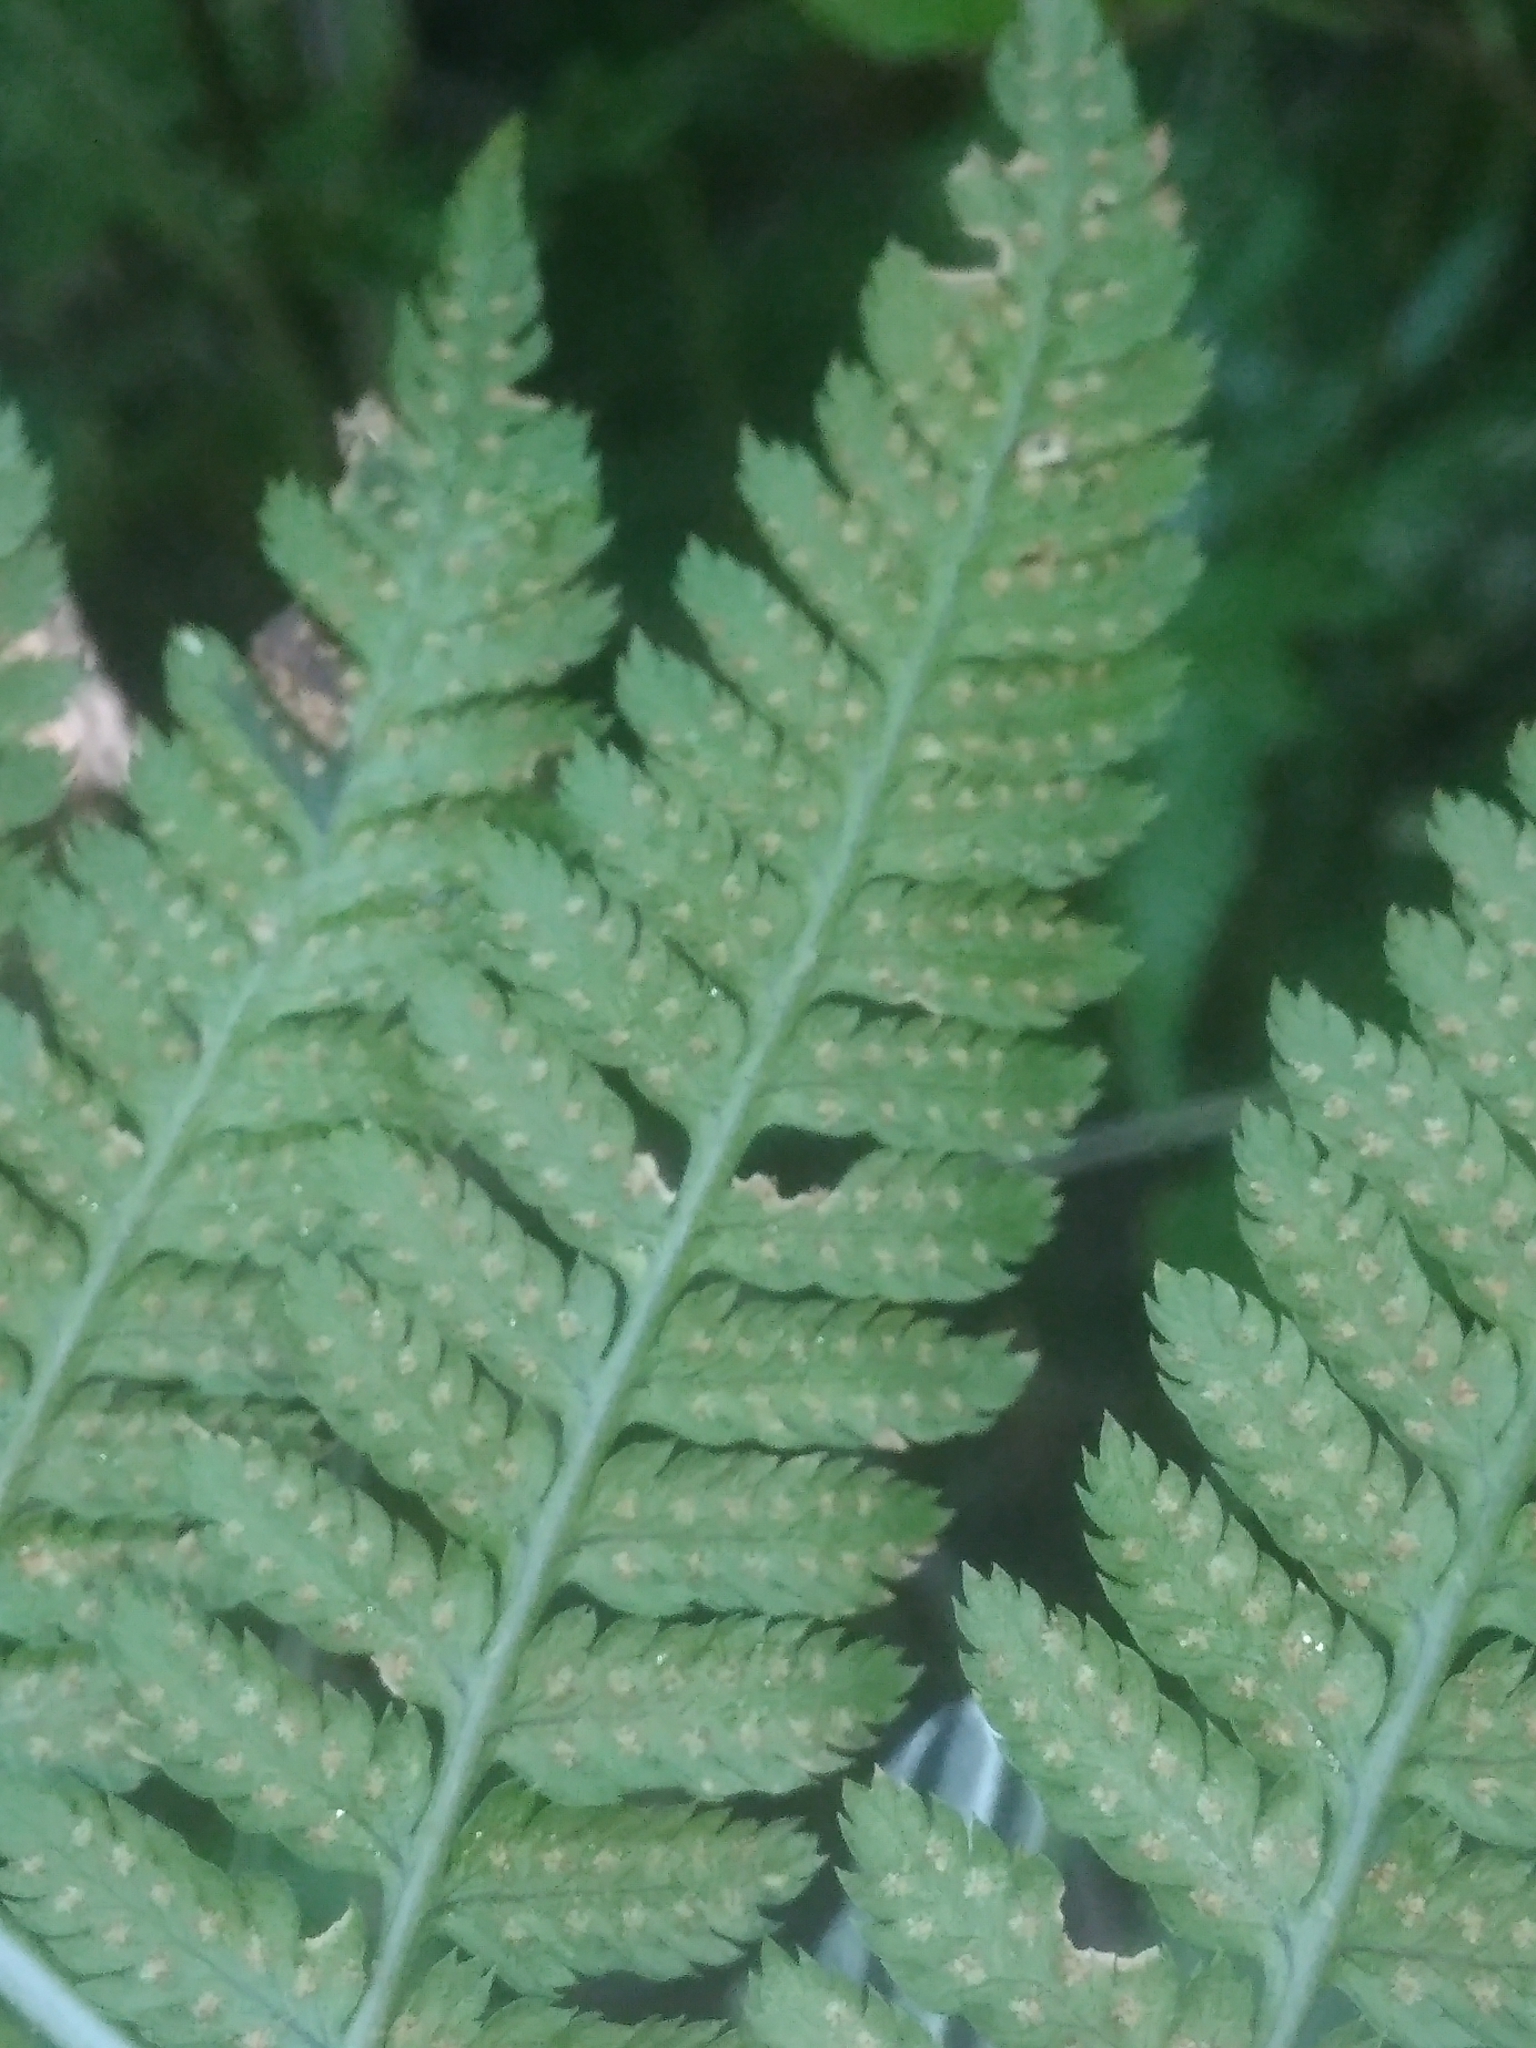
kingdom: Plantae
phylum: Tracheophyta
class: Polypodiopsida
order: Polypodiales
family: Dryopteridaceae
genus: Dryopteris
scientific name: Dryopteris carthusiana
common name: Narrow buckler-fern
